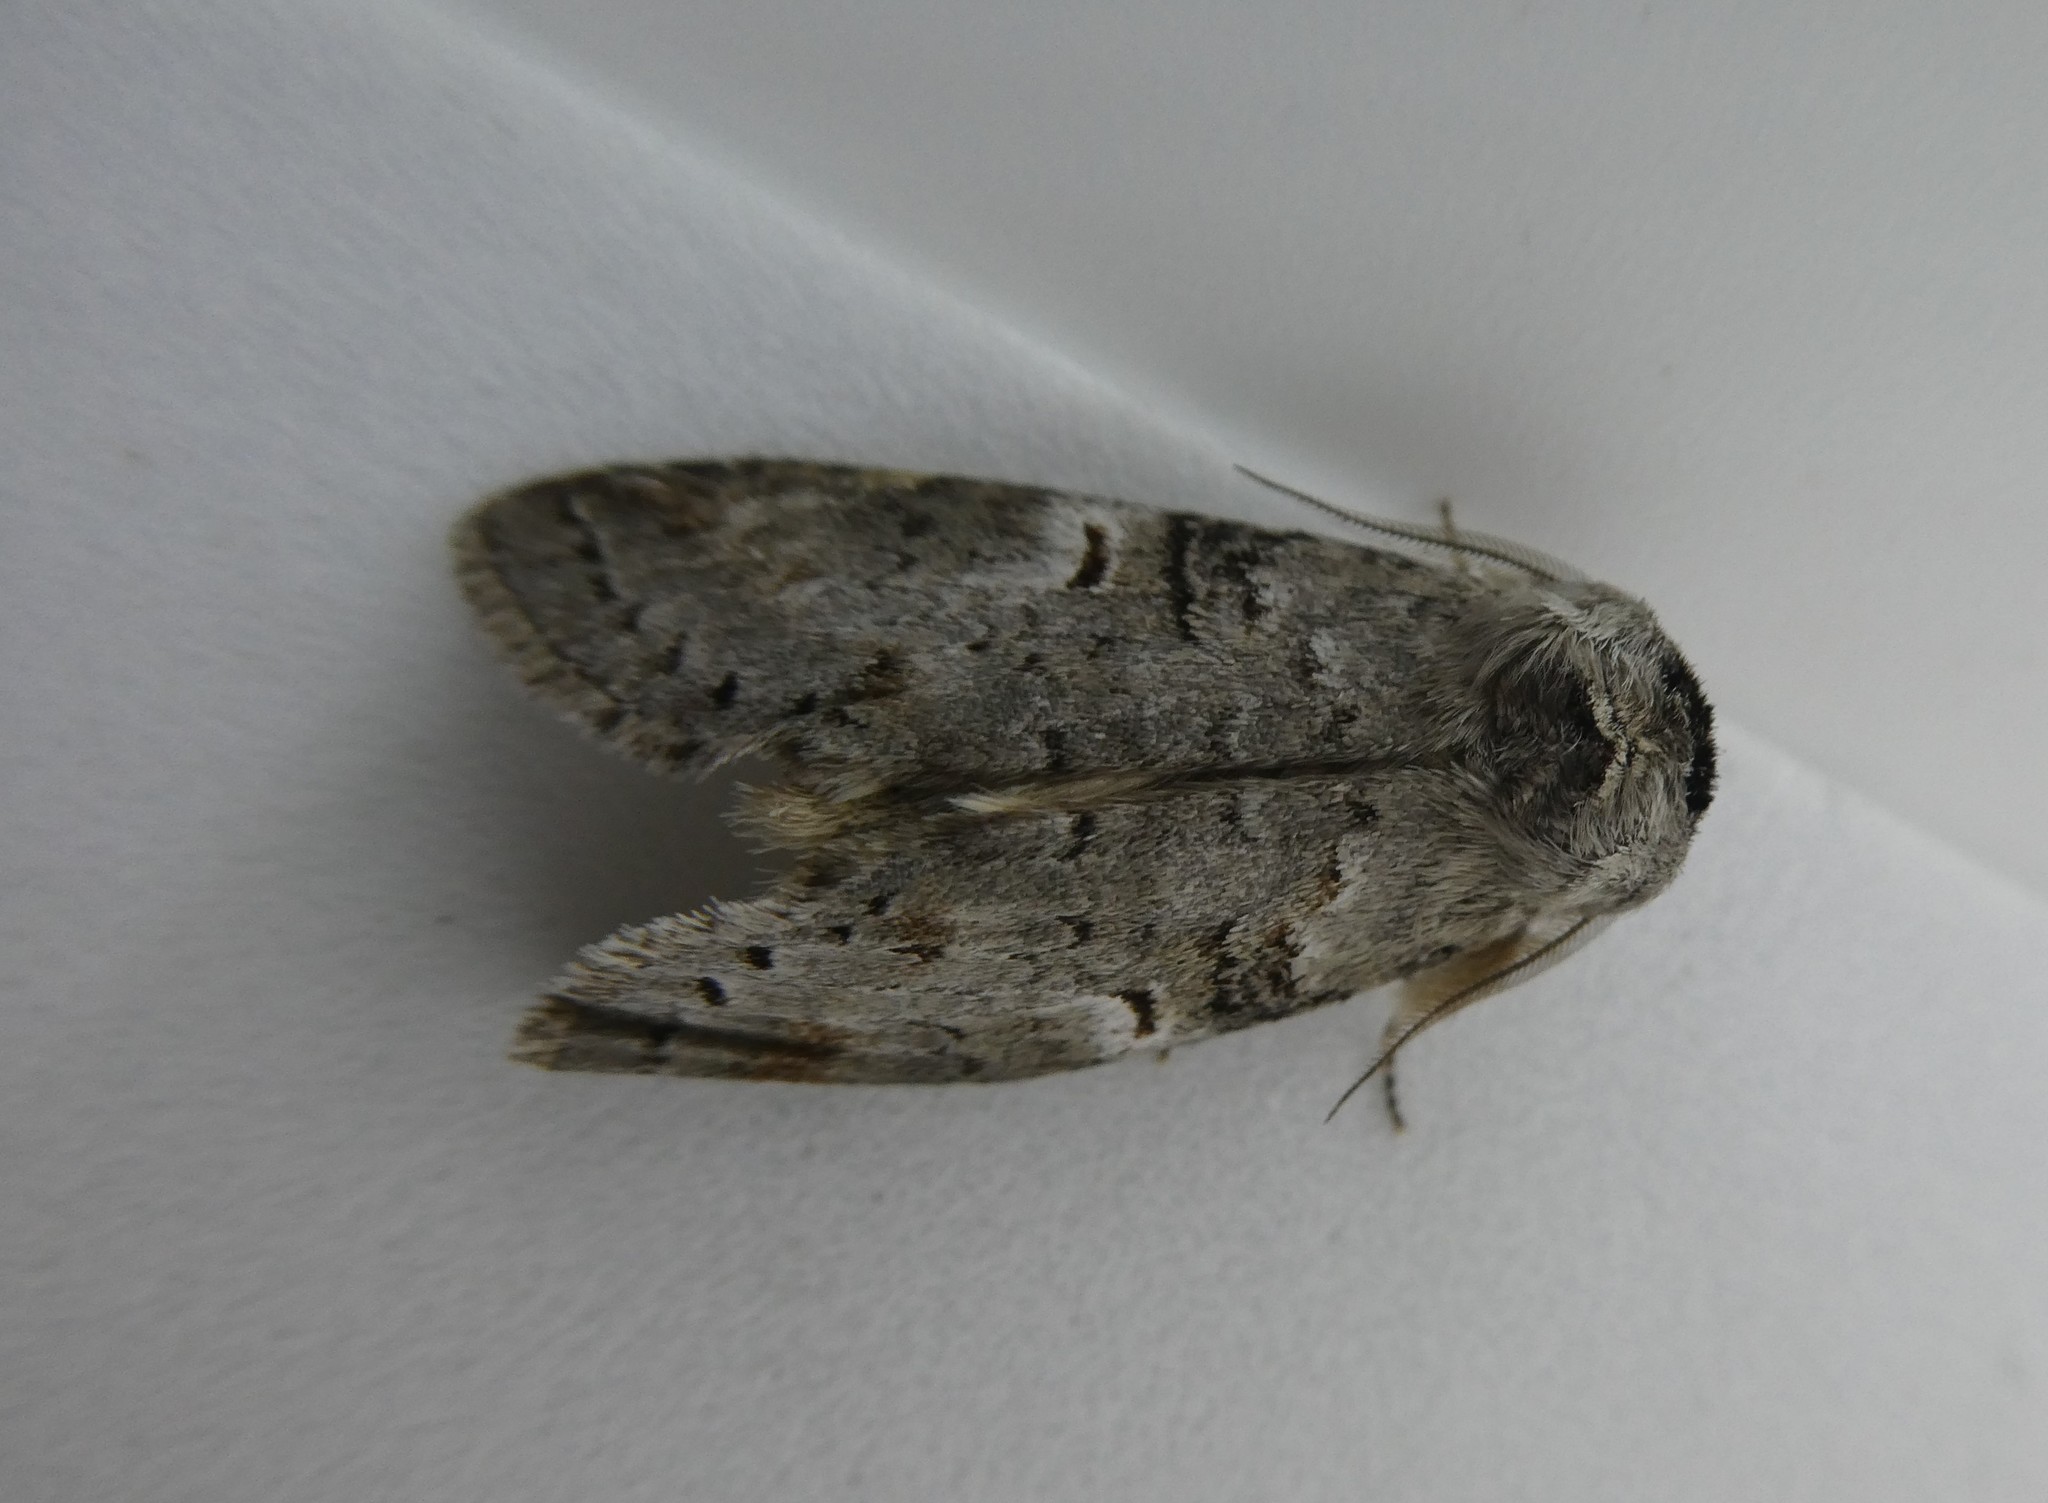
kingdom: Animalia
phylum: Arthropoda
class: Insecta
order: Lepidoptera
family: Notodontidae
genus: Ellida
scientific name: Ellida caniplaga
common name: Linden prominent
